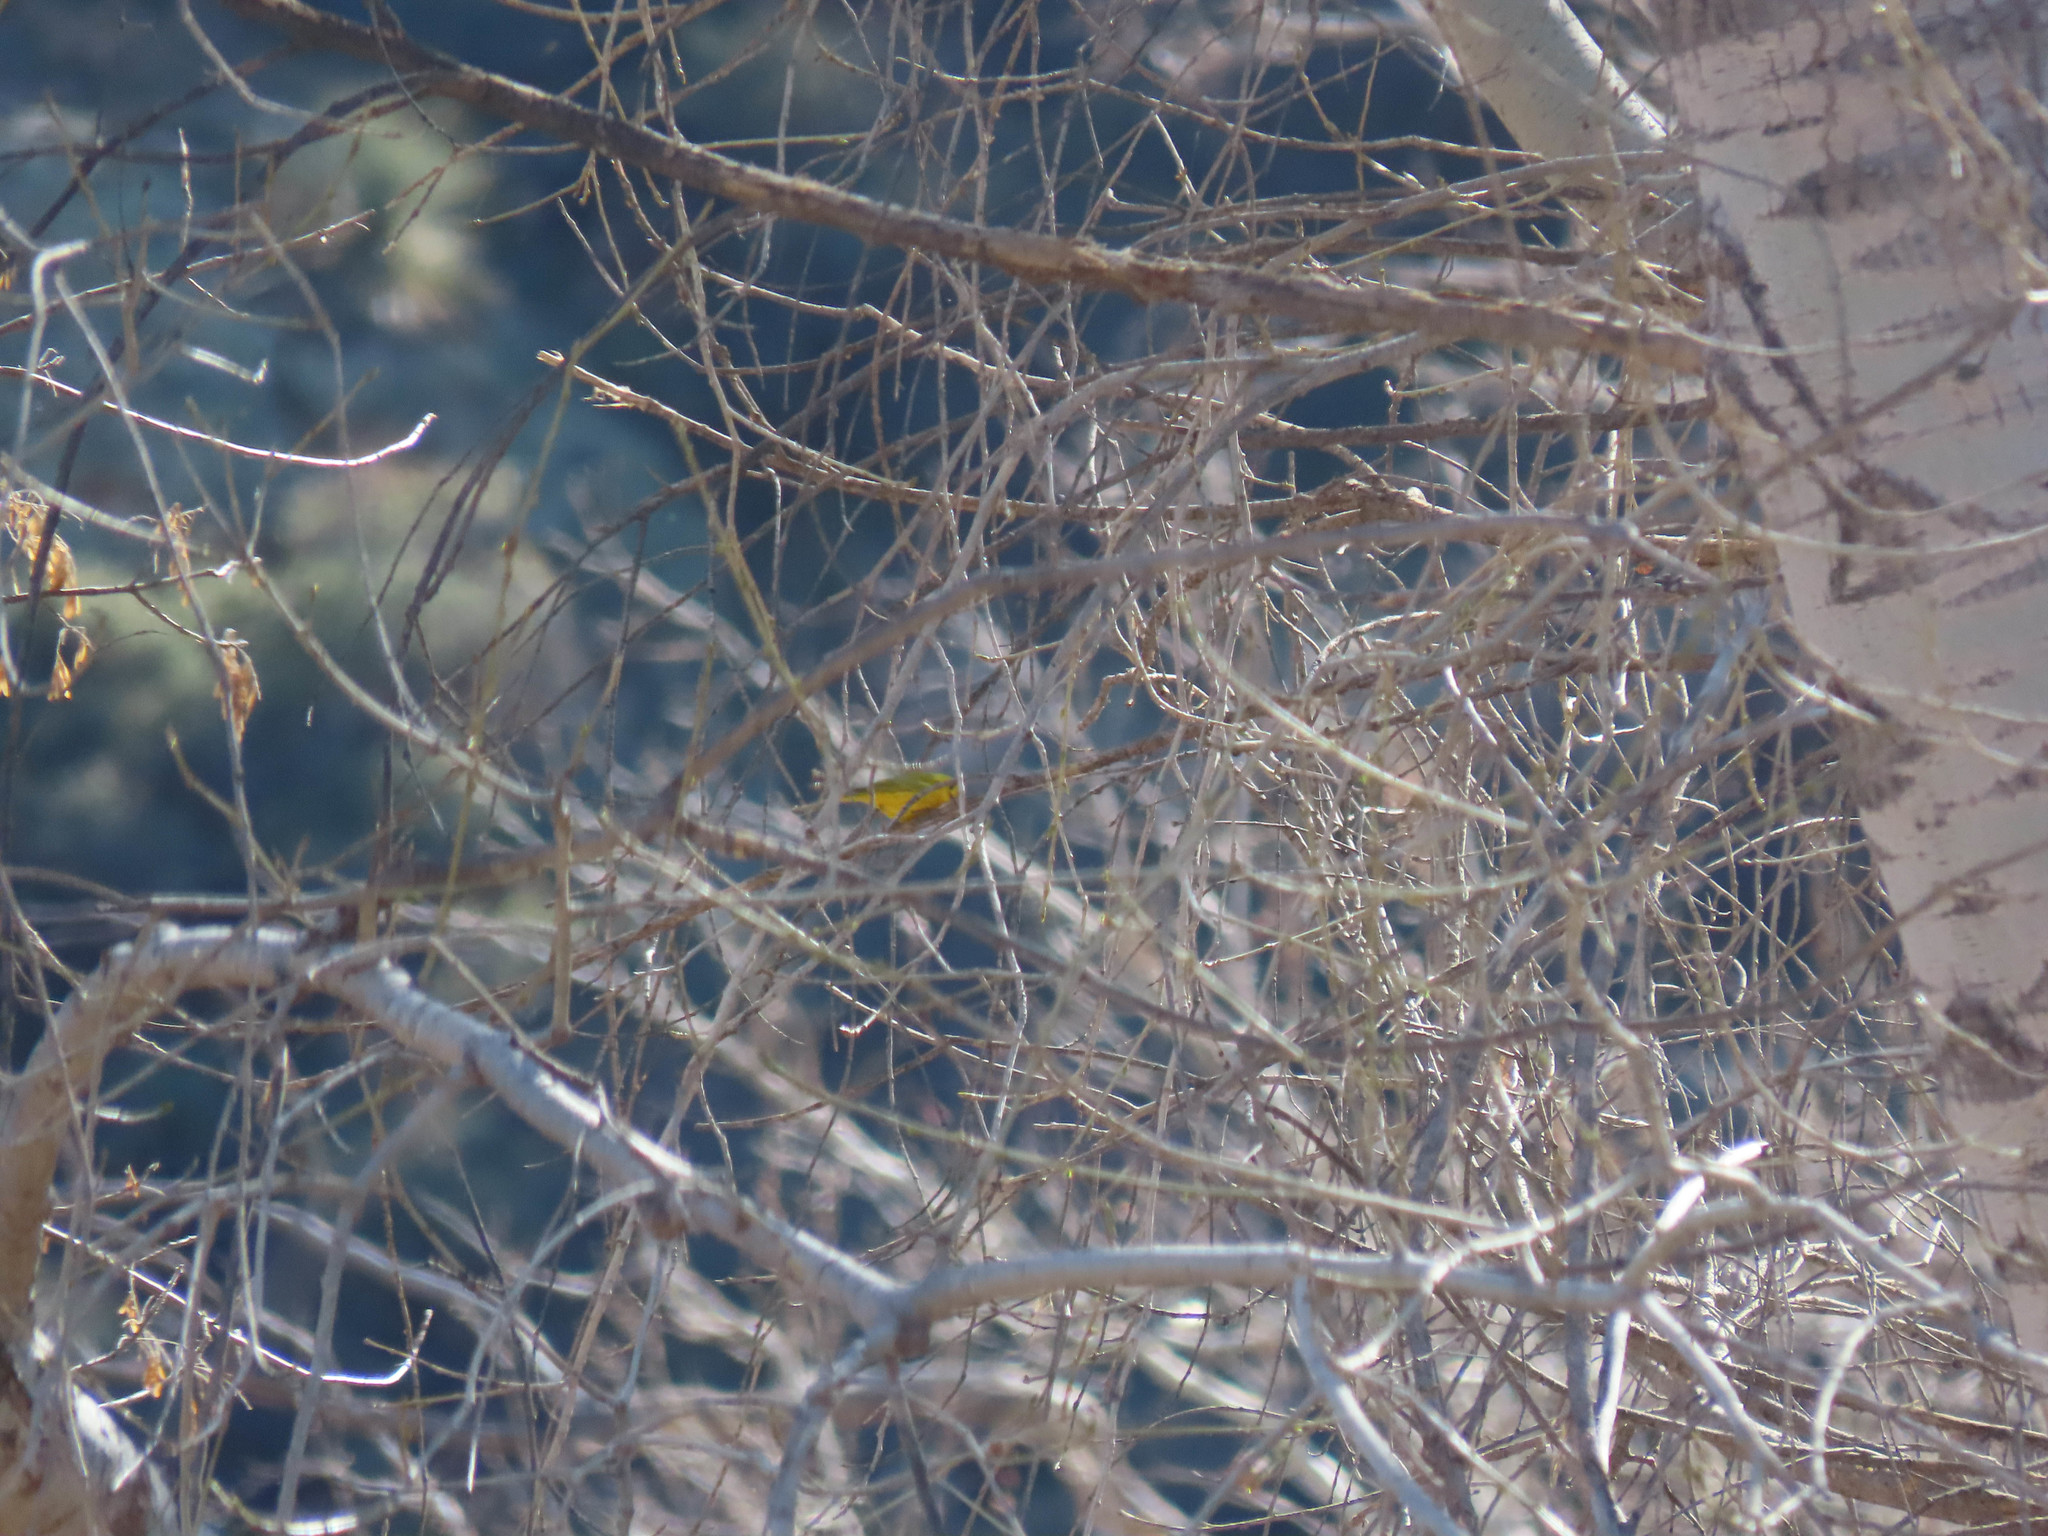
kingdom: Animalia
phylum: Chordata
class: Aves
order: Passeriformes
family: Parulidae
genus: Setophaga
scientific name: Setophaga petechia
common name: Yellow warbler
